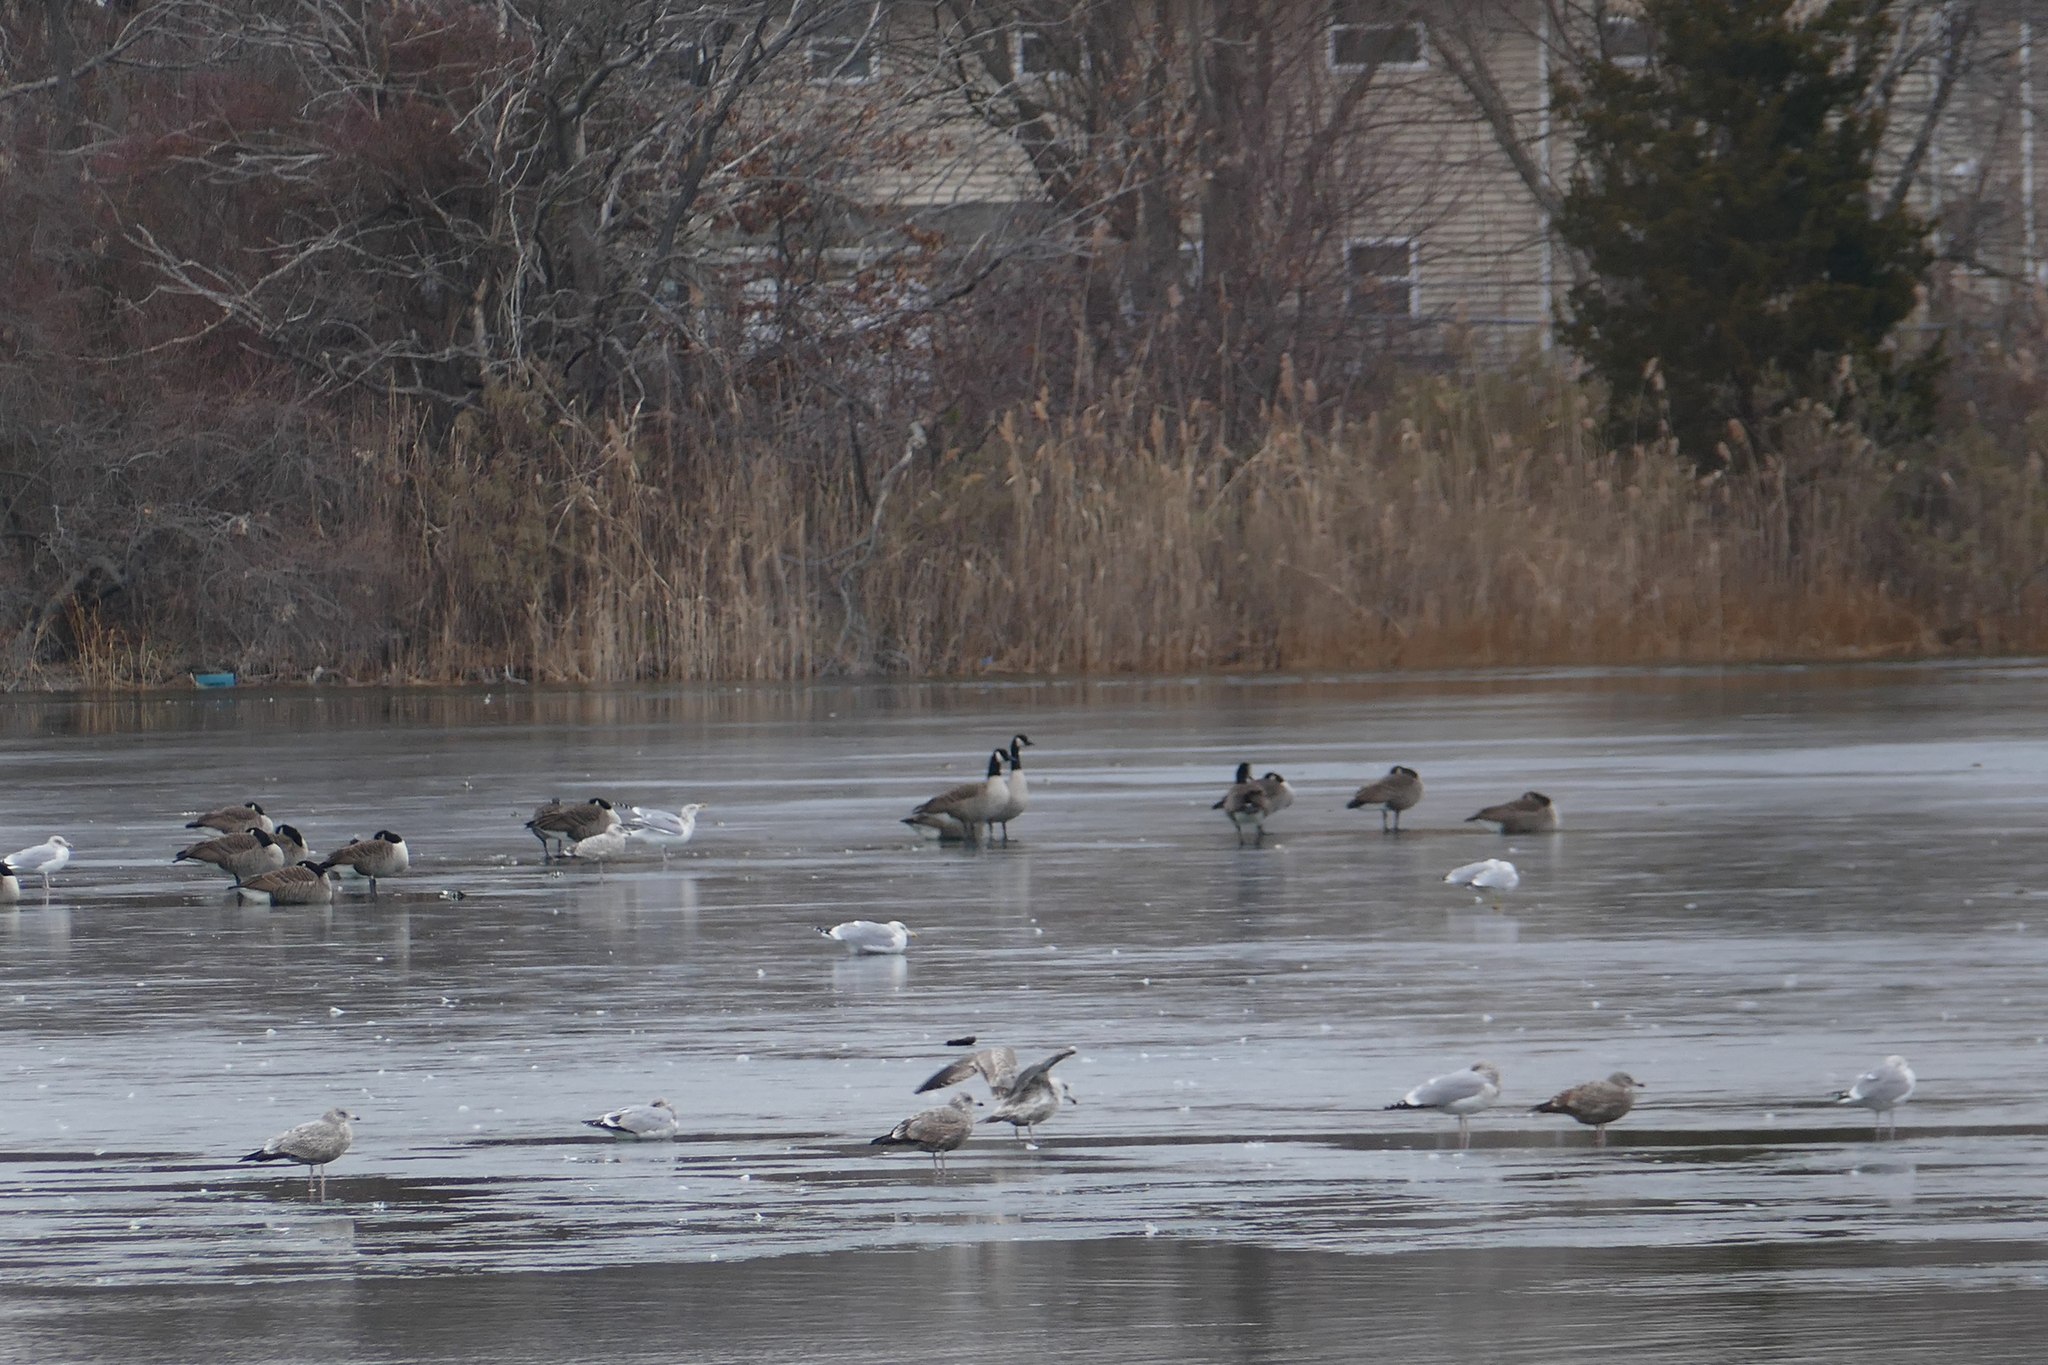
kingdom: Animalia
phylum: Chordata
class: Aves
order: Anseriformes
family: Anatidae
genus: Branta
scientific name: Branta canadensis
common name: Canada goose
